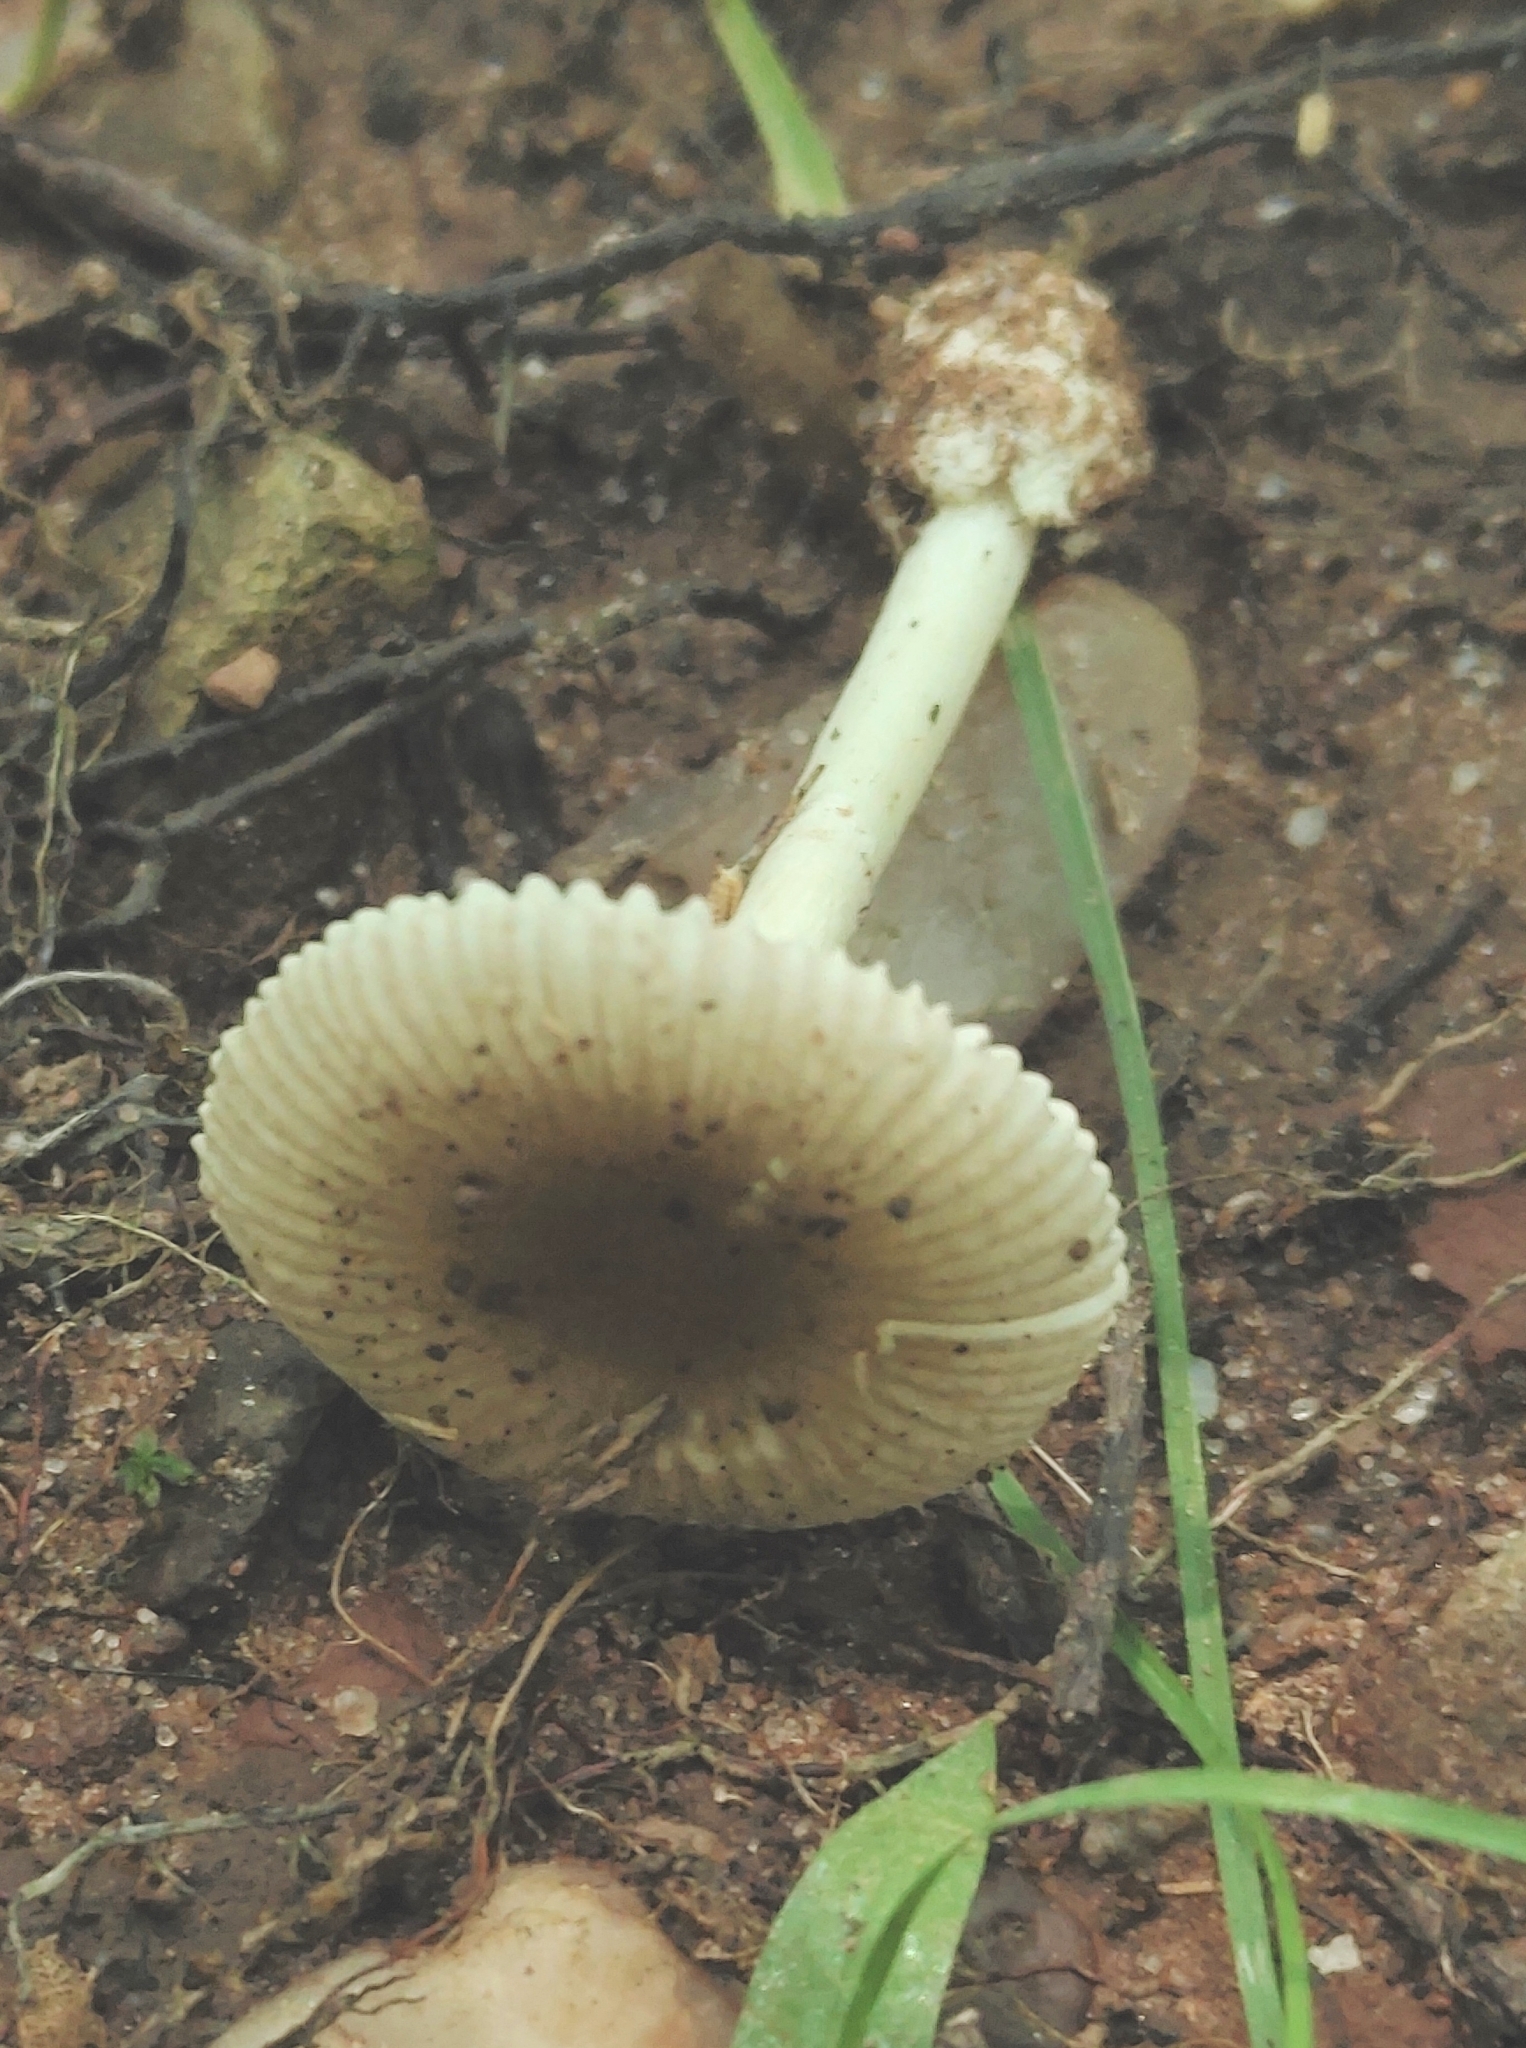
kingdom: Fungi
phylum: Basidiomycota
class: Agaricomycetes
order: Agaricales
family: Amanitaceae
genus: Amanita
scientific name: Amanita pachysperma
